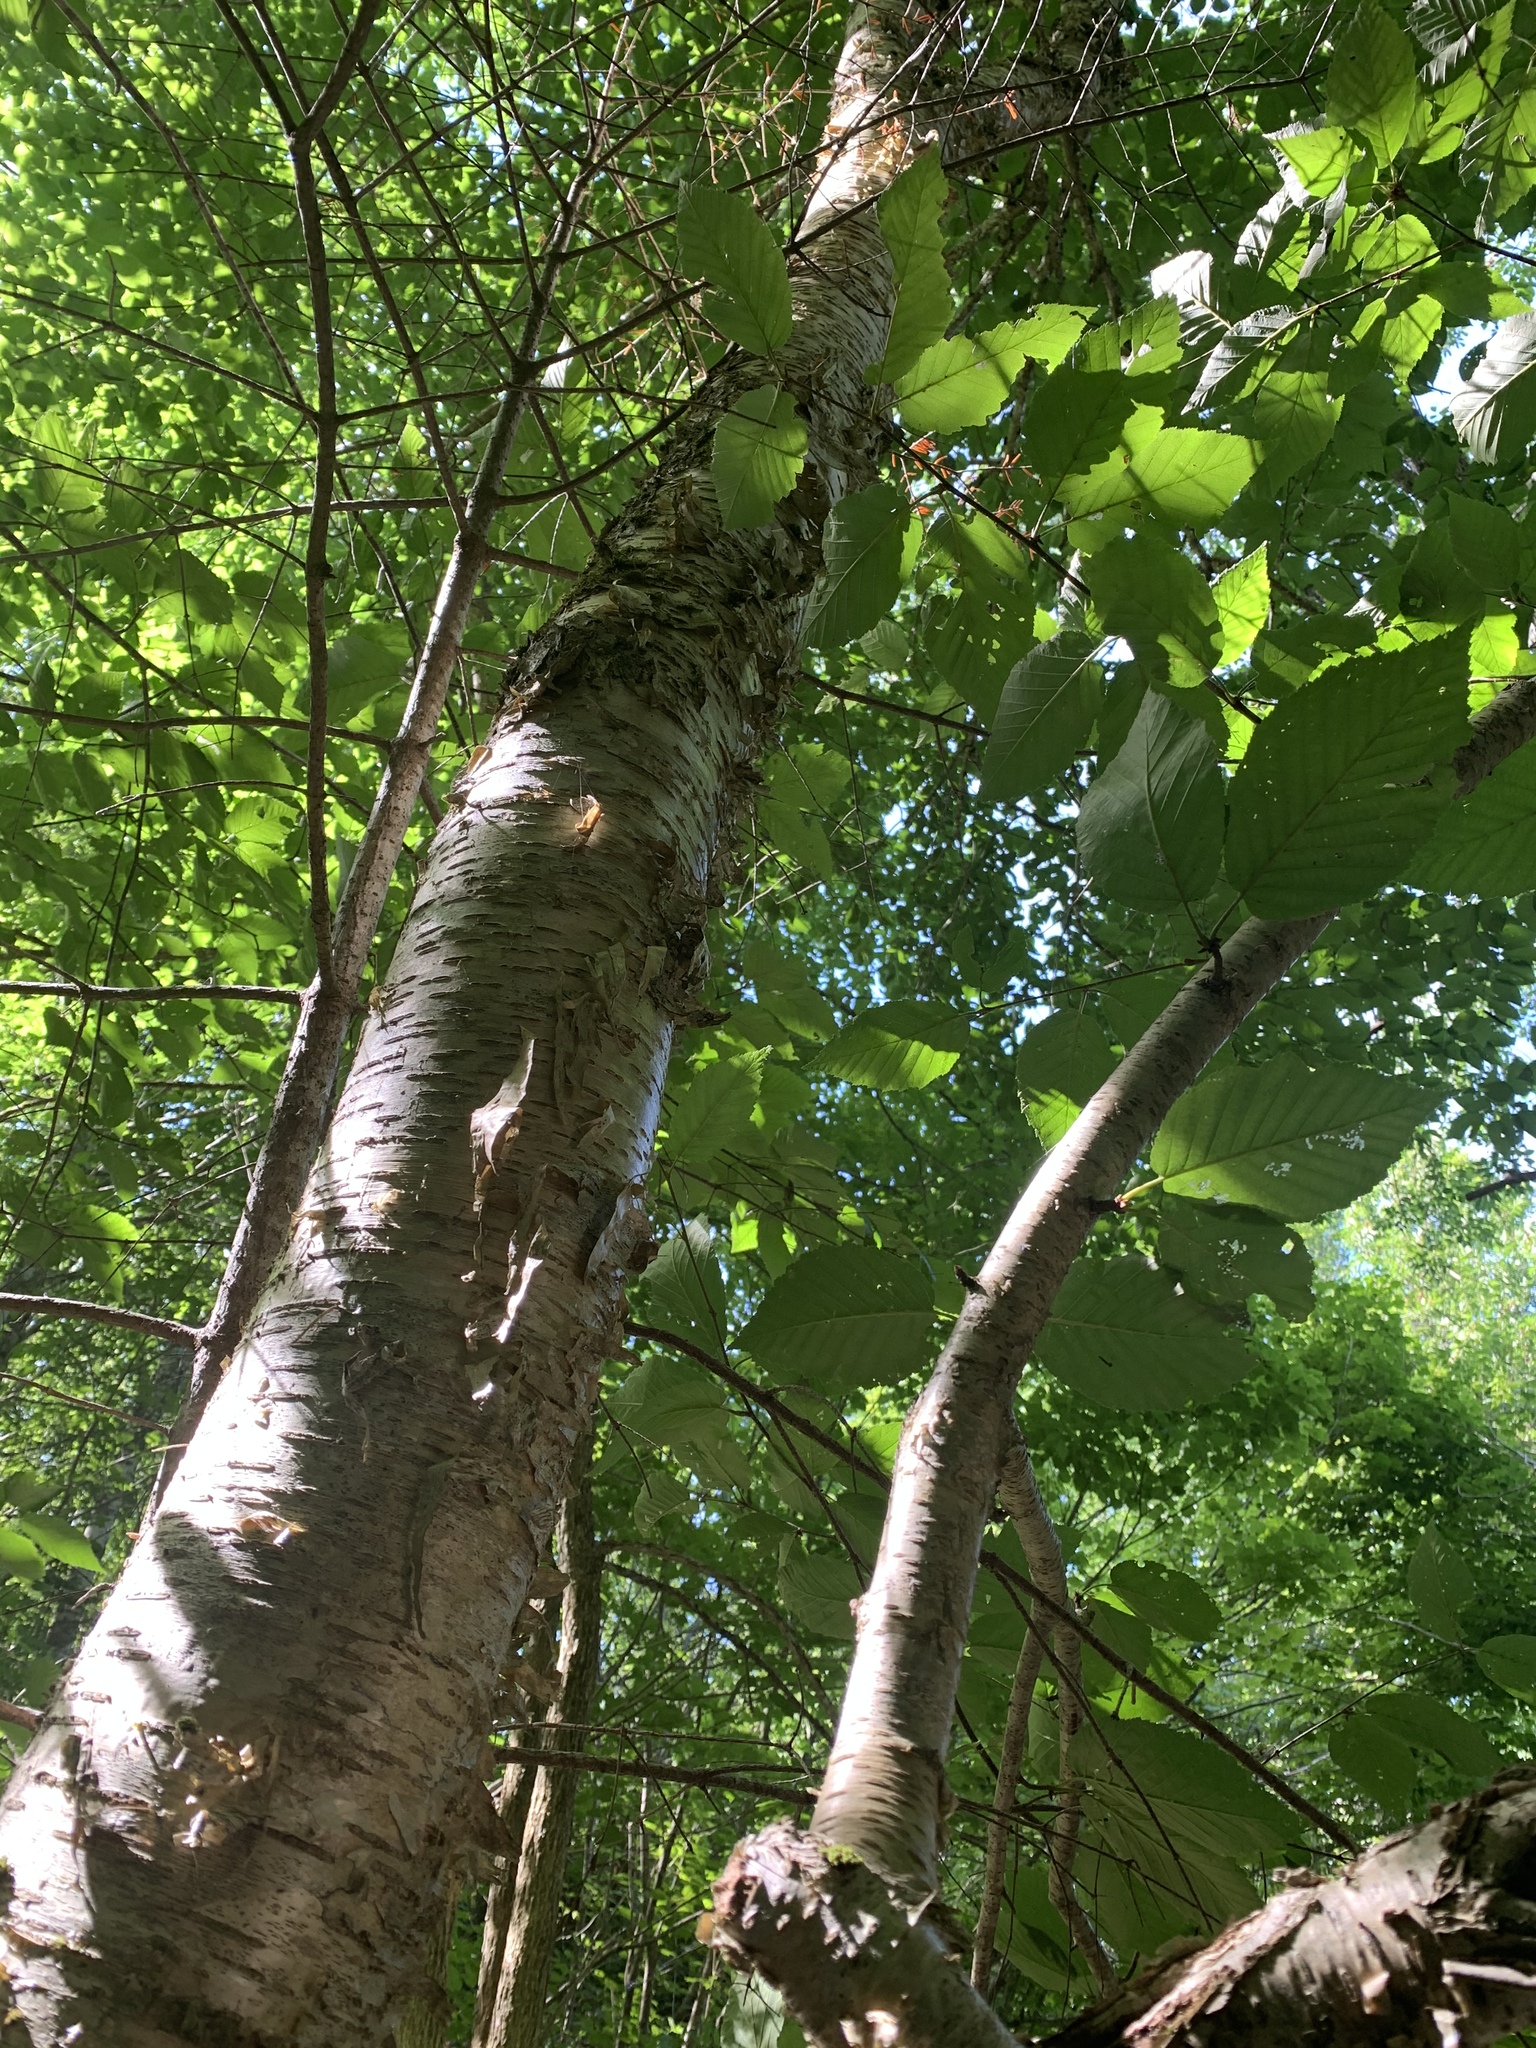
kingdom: Plantae
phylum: Tracheophyta
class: Magnoliopsida
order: Fagales
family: Betulaceae
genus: Betula
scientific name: Betula alleghaniensis
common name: Yellow birch
